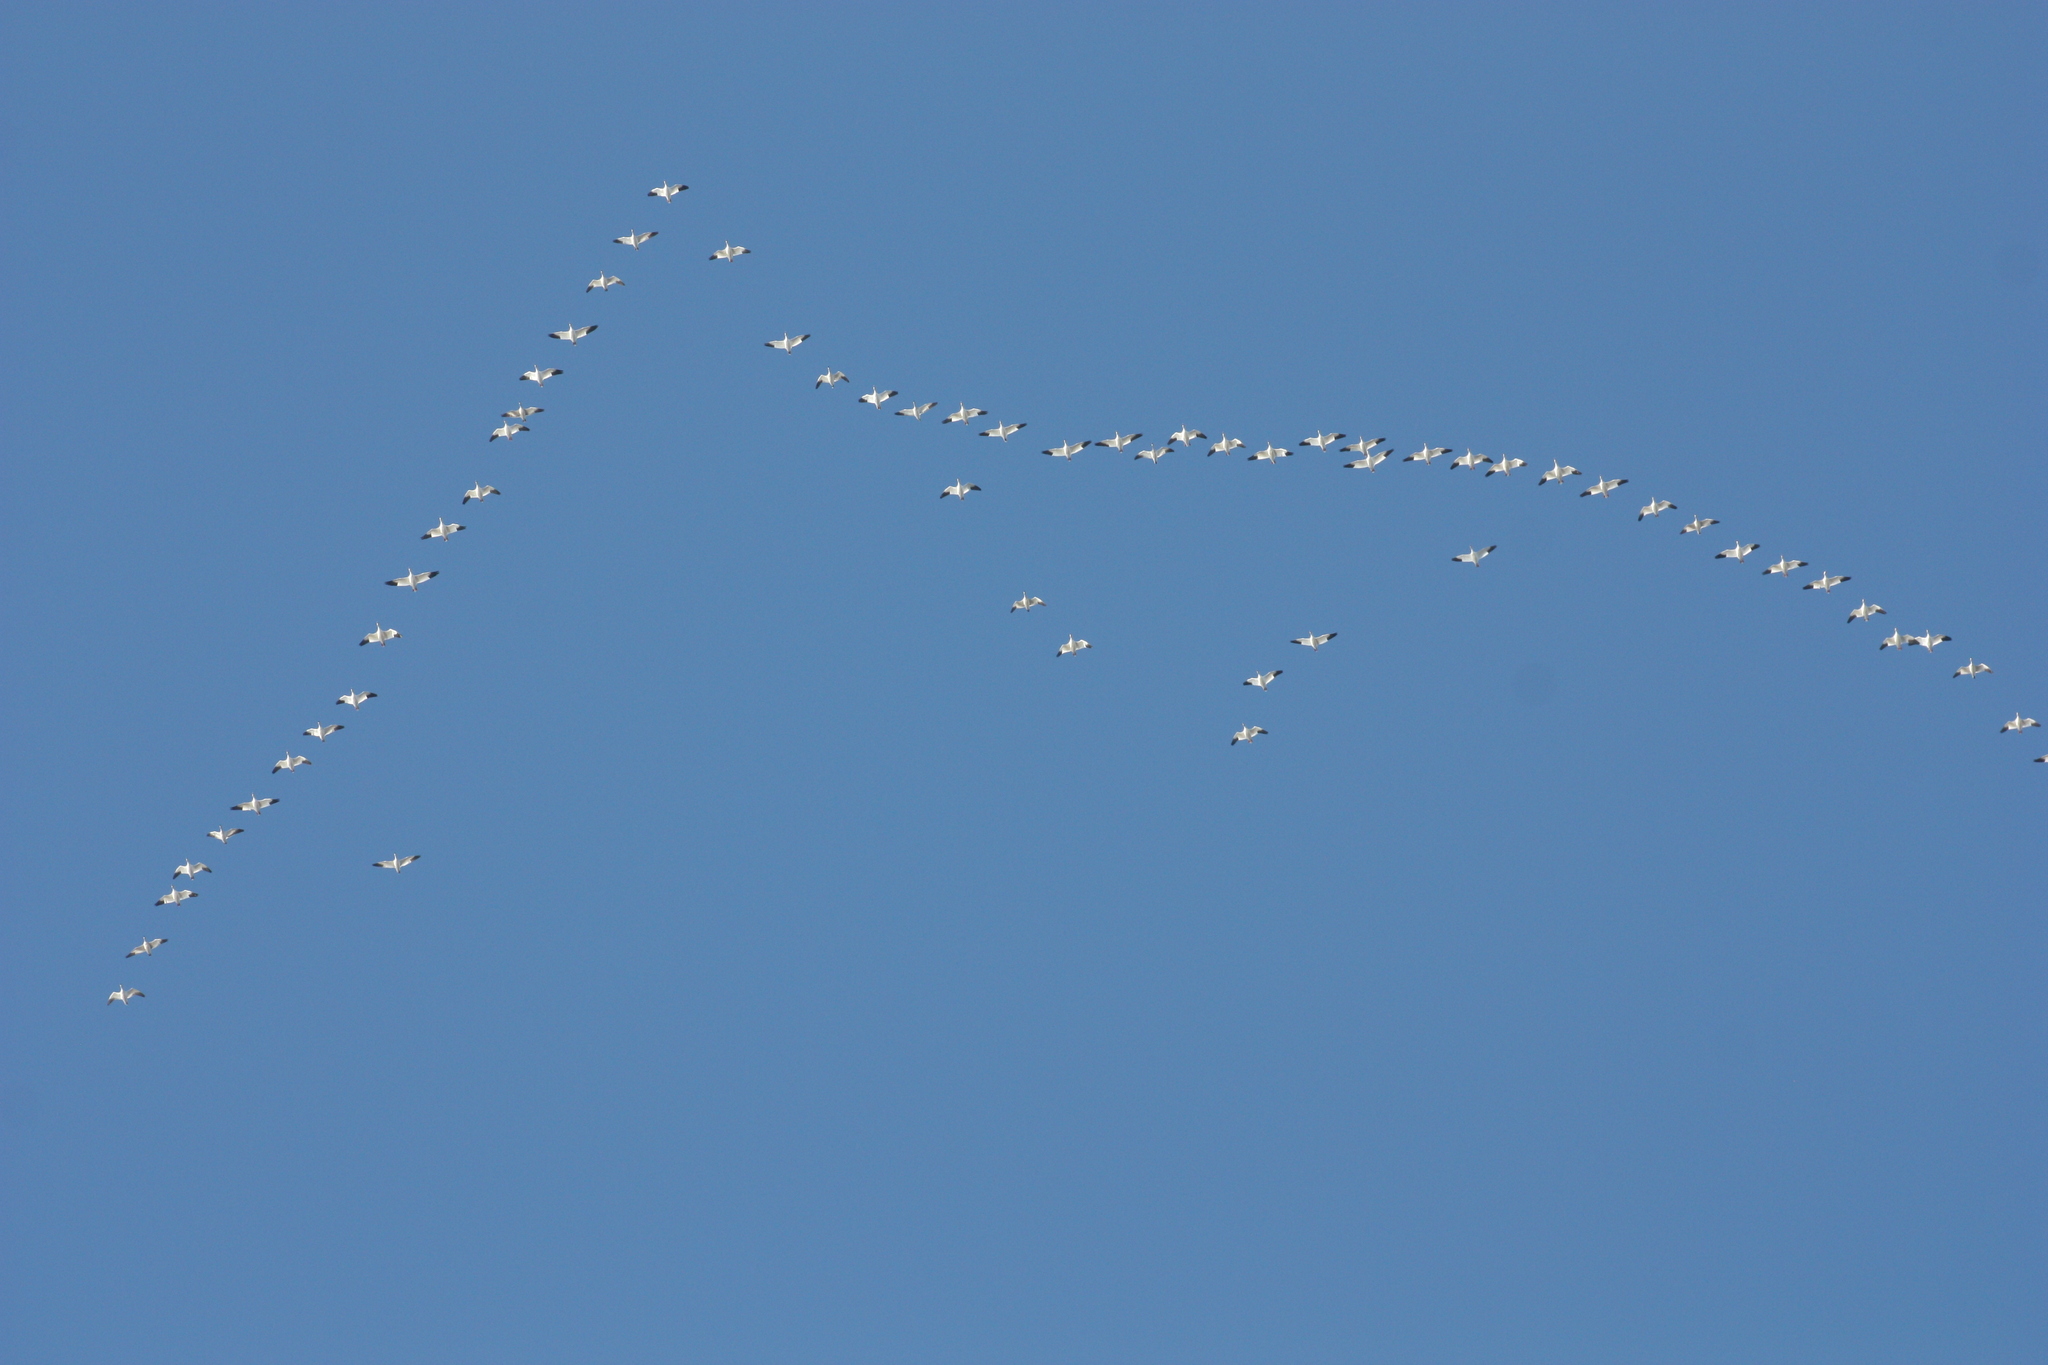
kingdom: Animalia
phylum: Chordata
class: Aves
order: Anseriformes
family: Anatidae
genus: Anser
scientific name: Anser caerulescens
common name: Snow goose
